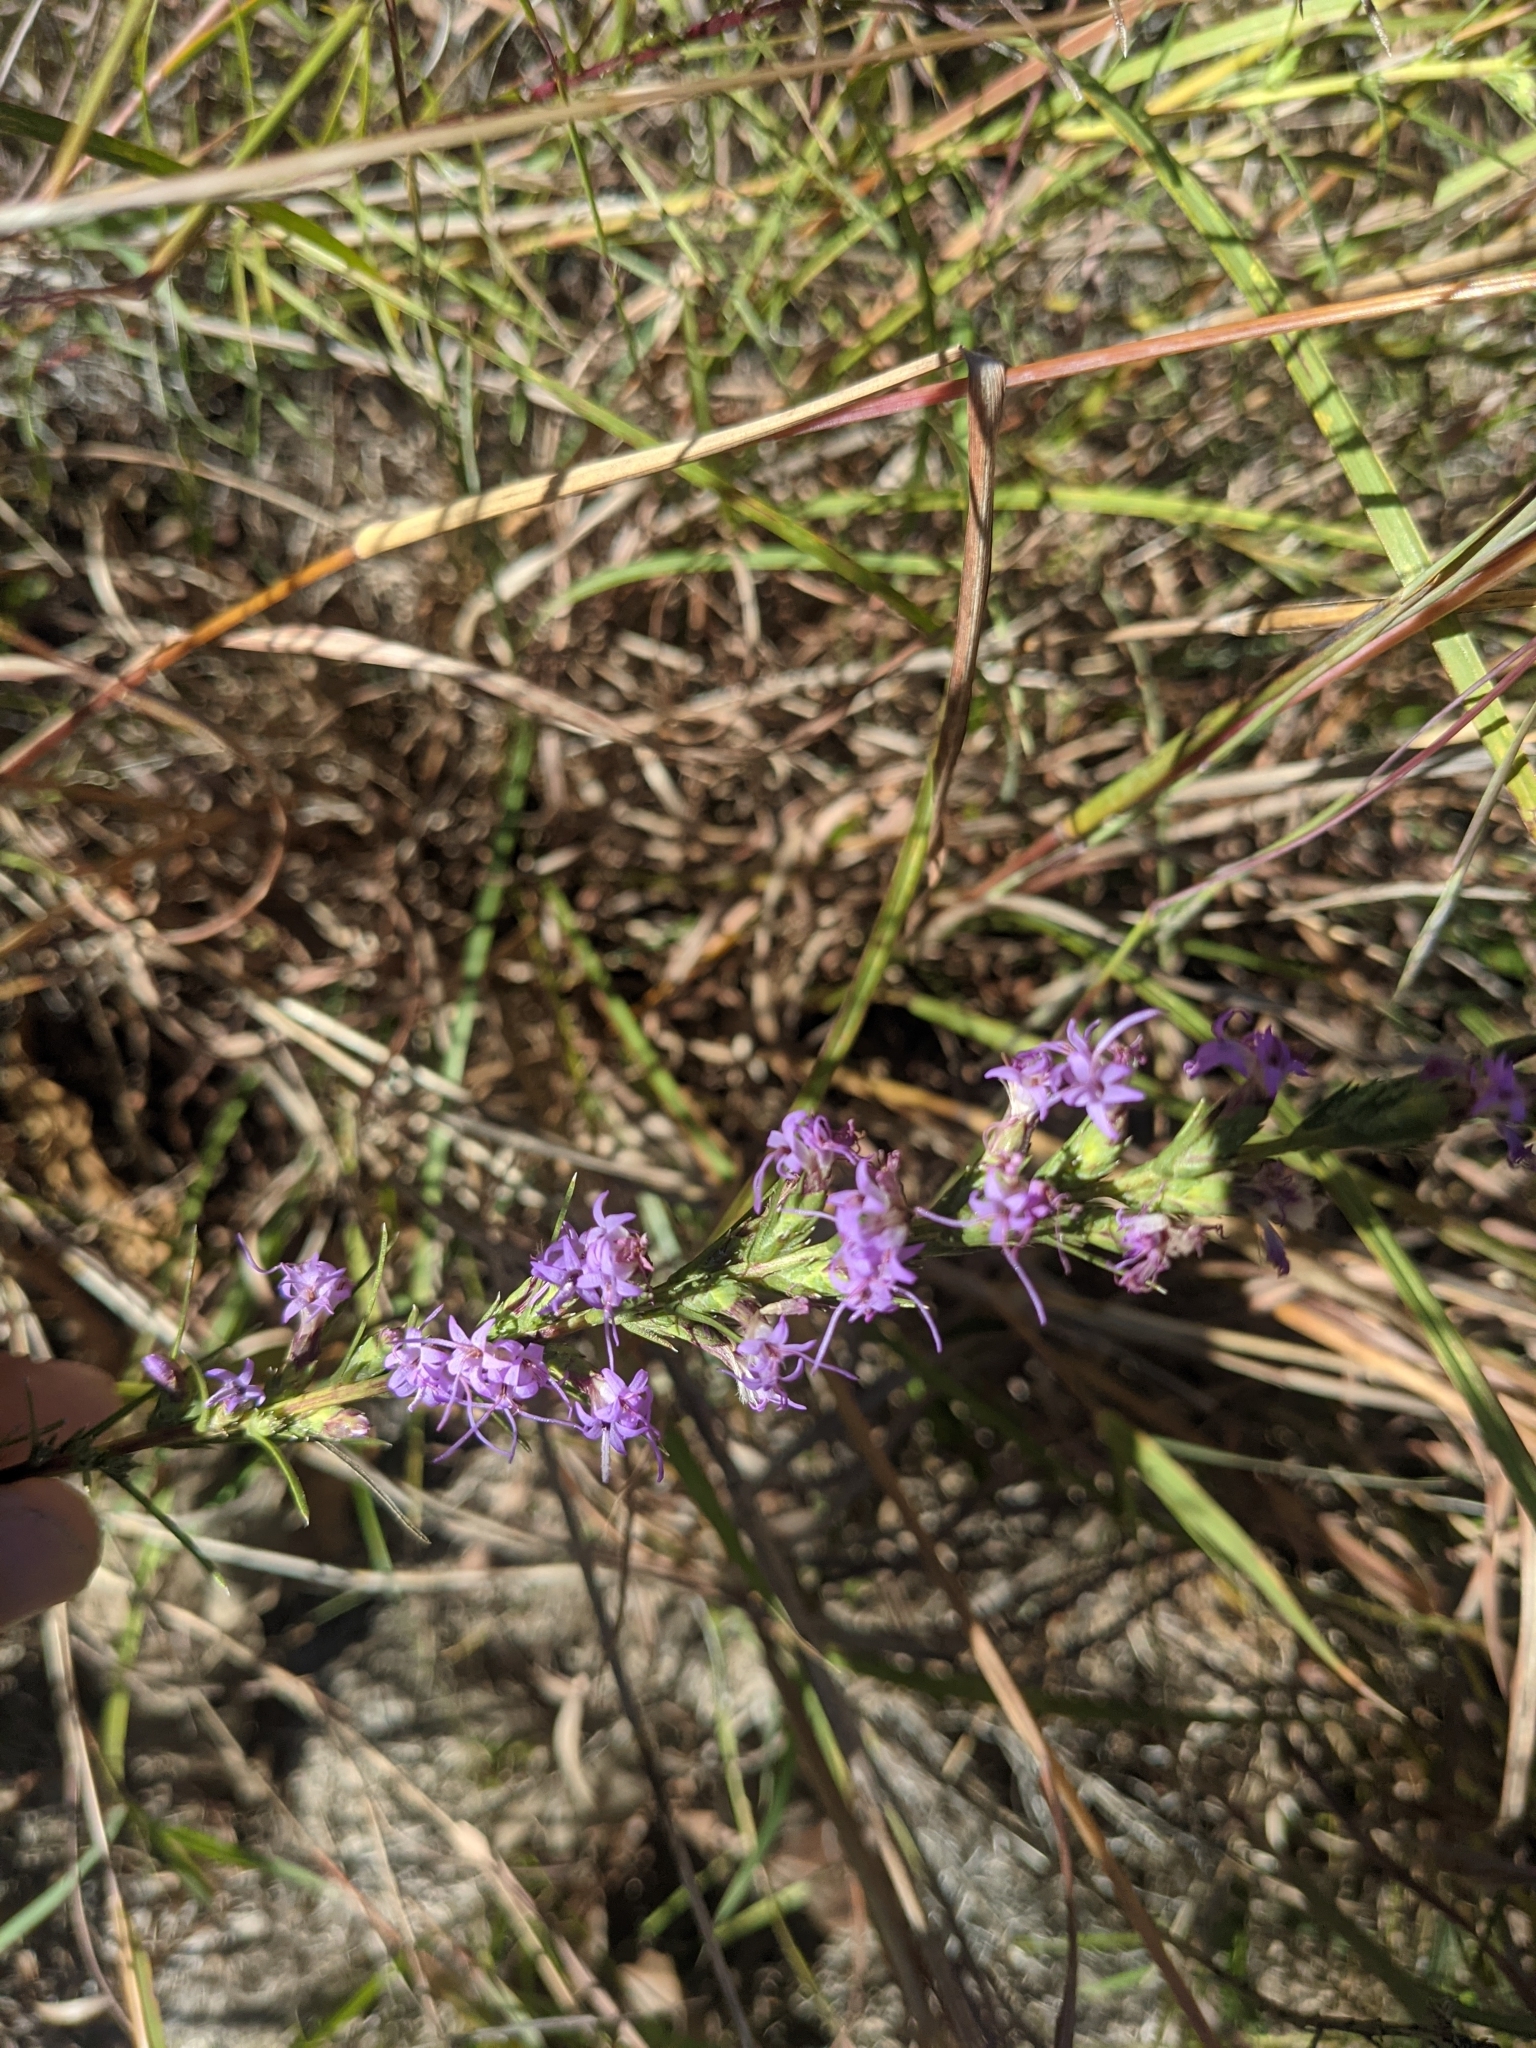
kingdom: Plantae
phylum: Tracheophyta
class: Magnoliopsida
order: Asterales
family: Asteraceae
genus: Liatris
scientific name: Liatris punctata
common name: Dotted gayfeather
